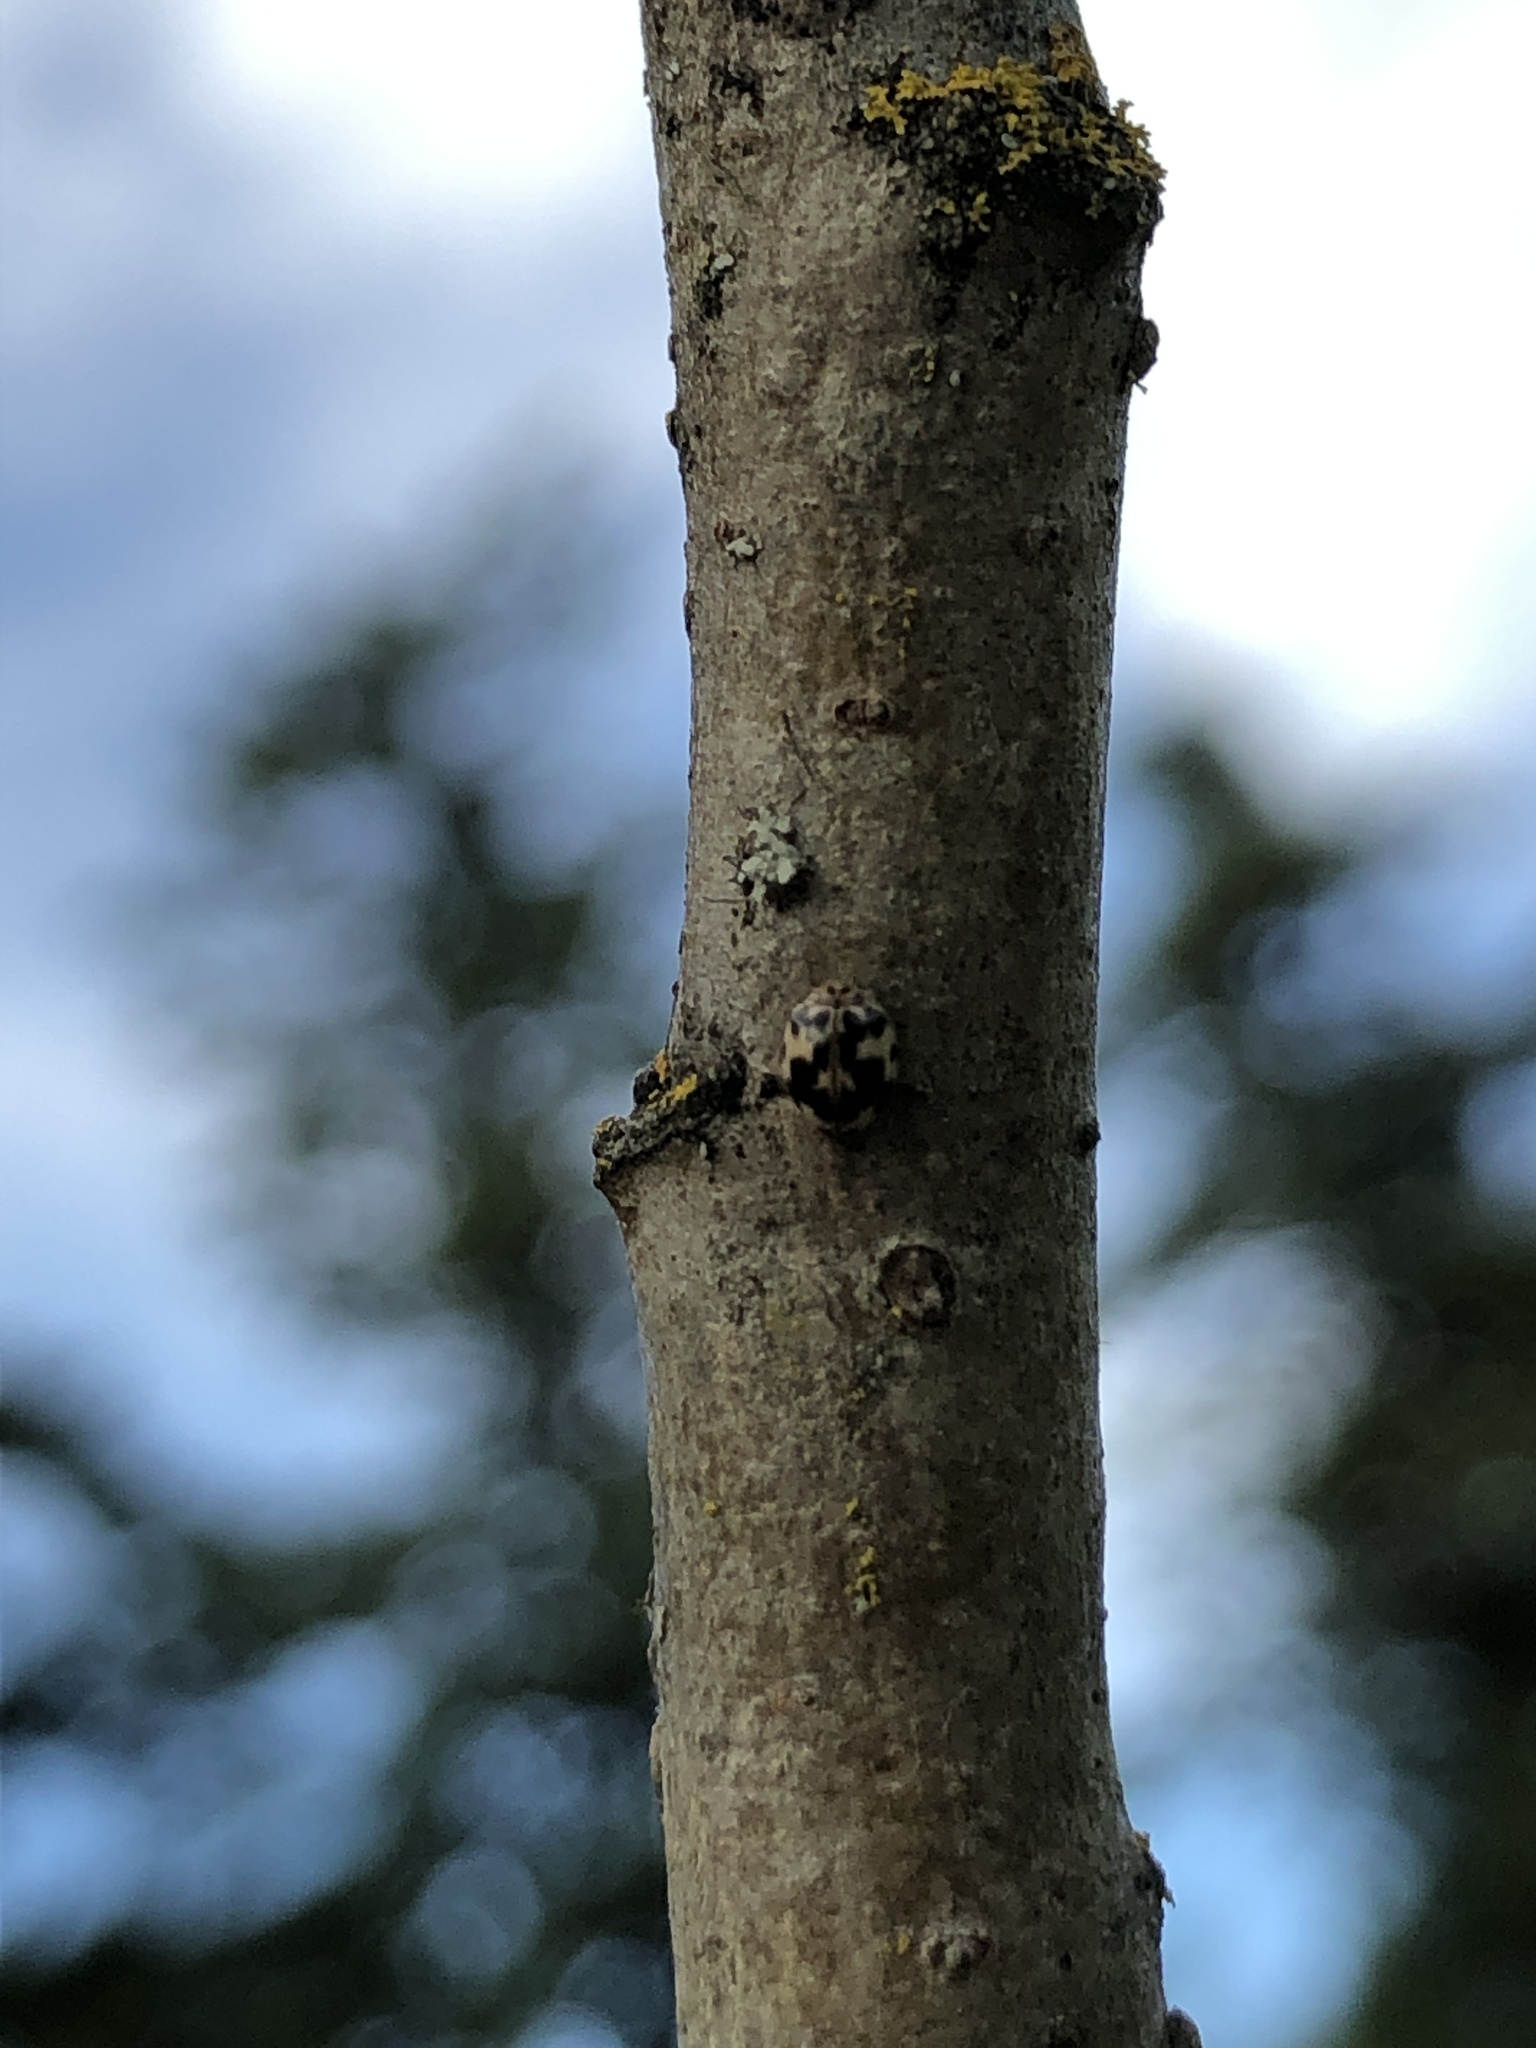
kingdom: Animalia
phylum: Arthropoda
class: Insecta
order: Coleoptera
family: Coccinellidae
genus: Psyllobora
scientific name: Psyllobora borealis
